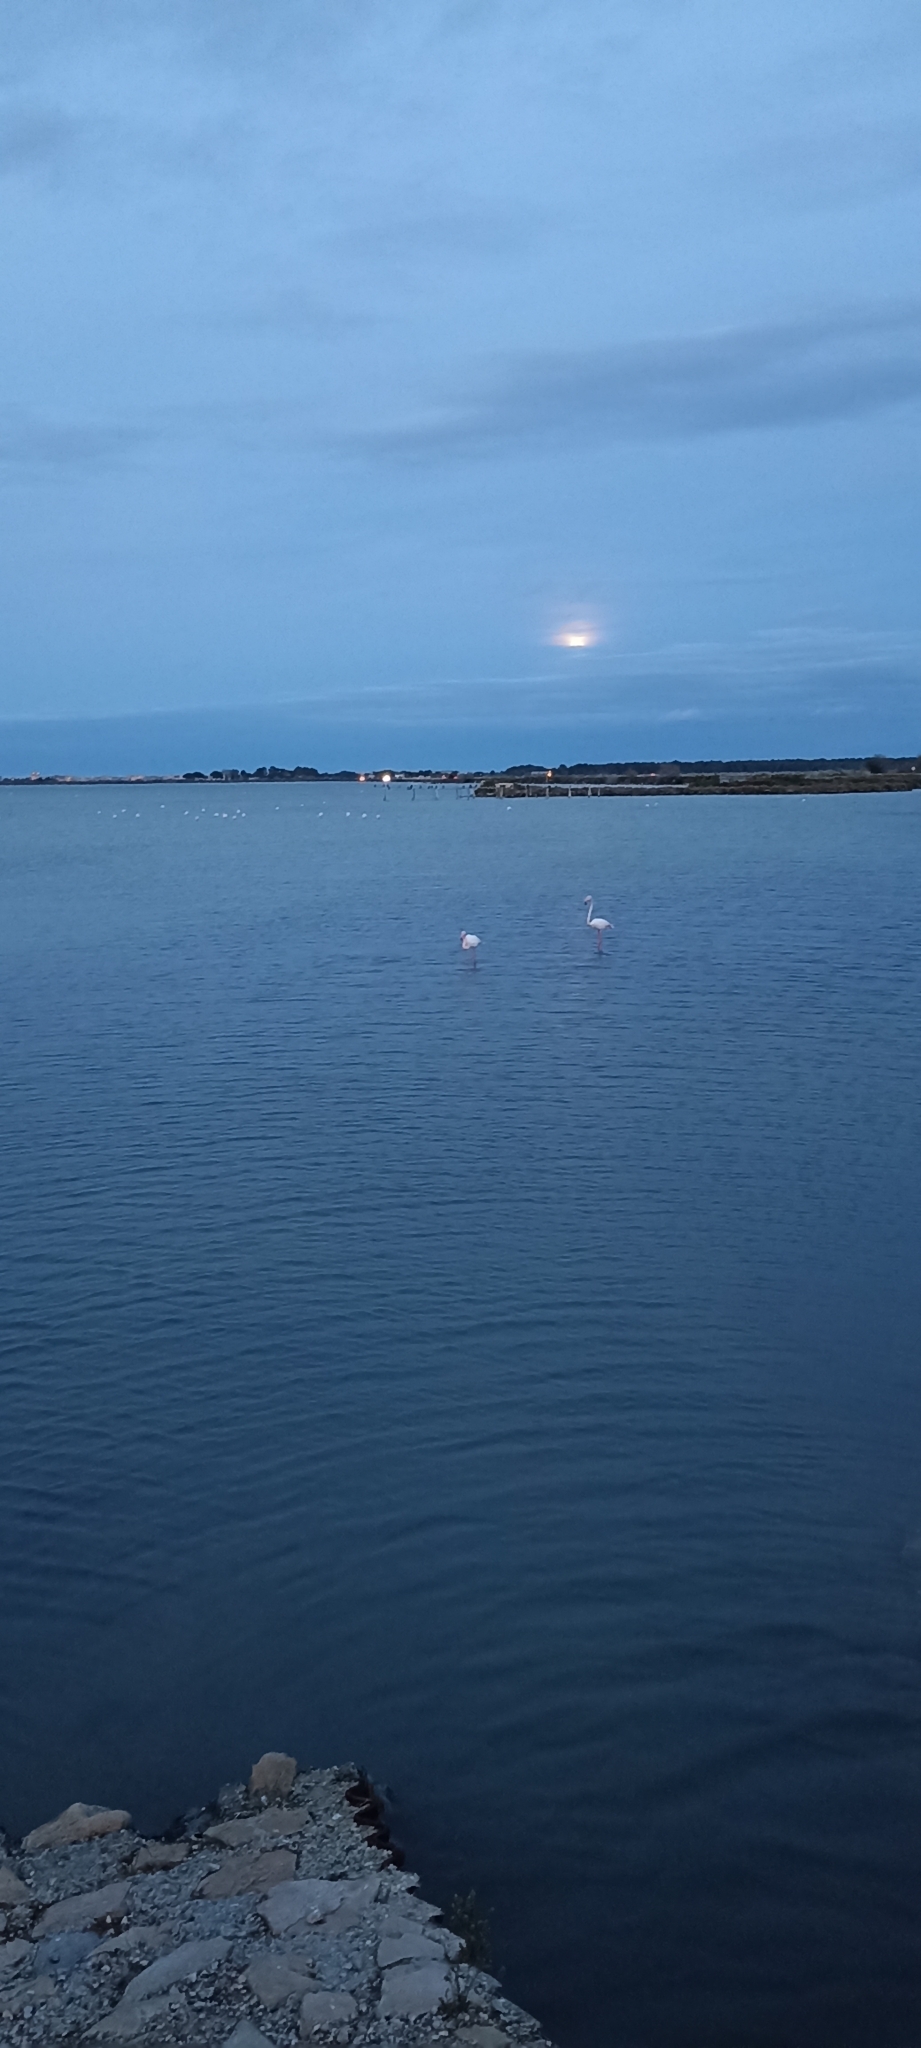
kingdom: Animalia
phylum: Chordata
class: Aves
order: Phoenicopteriformes
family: Phoenicopteridae
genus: Phoenicopterus
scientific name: Phoenicopterus roseus
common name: Greater flamingo
